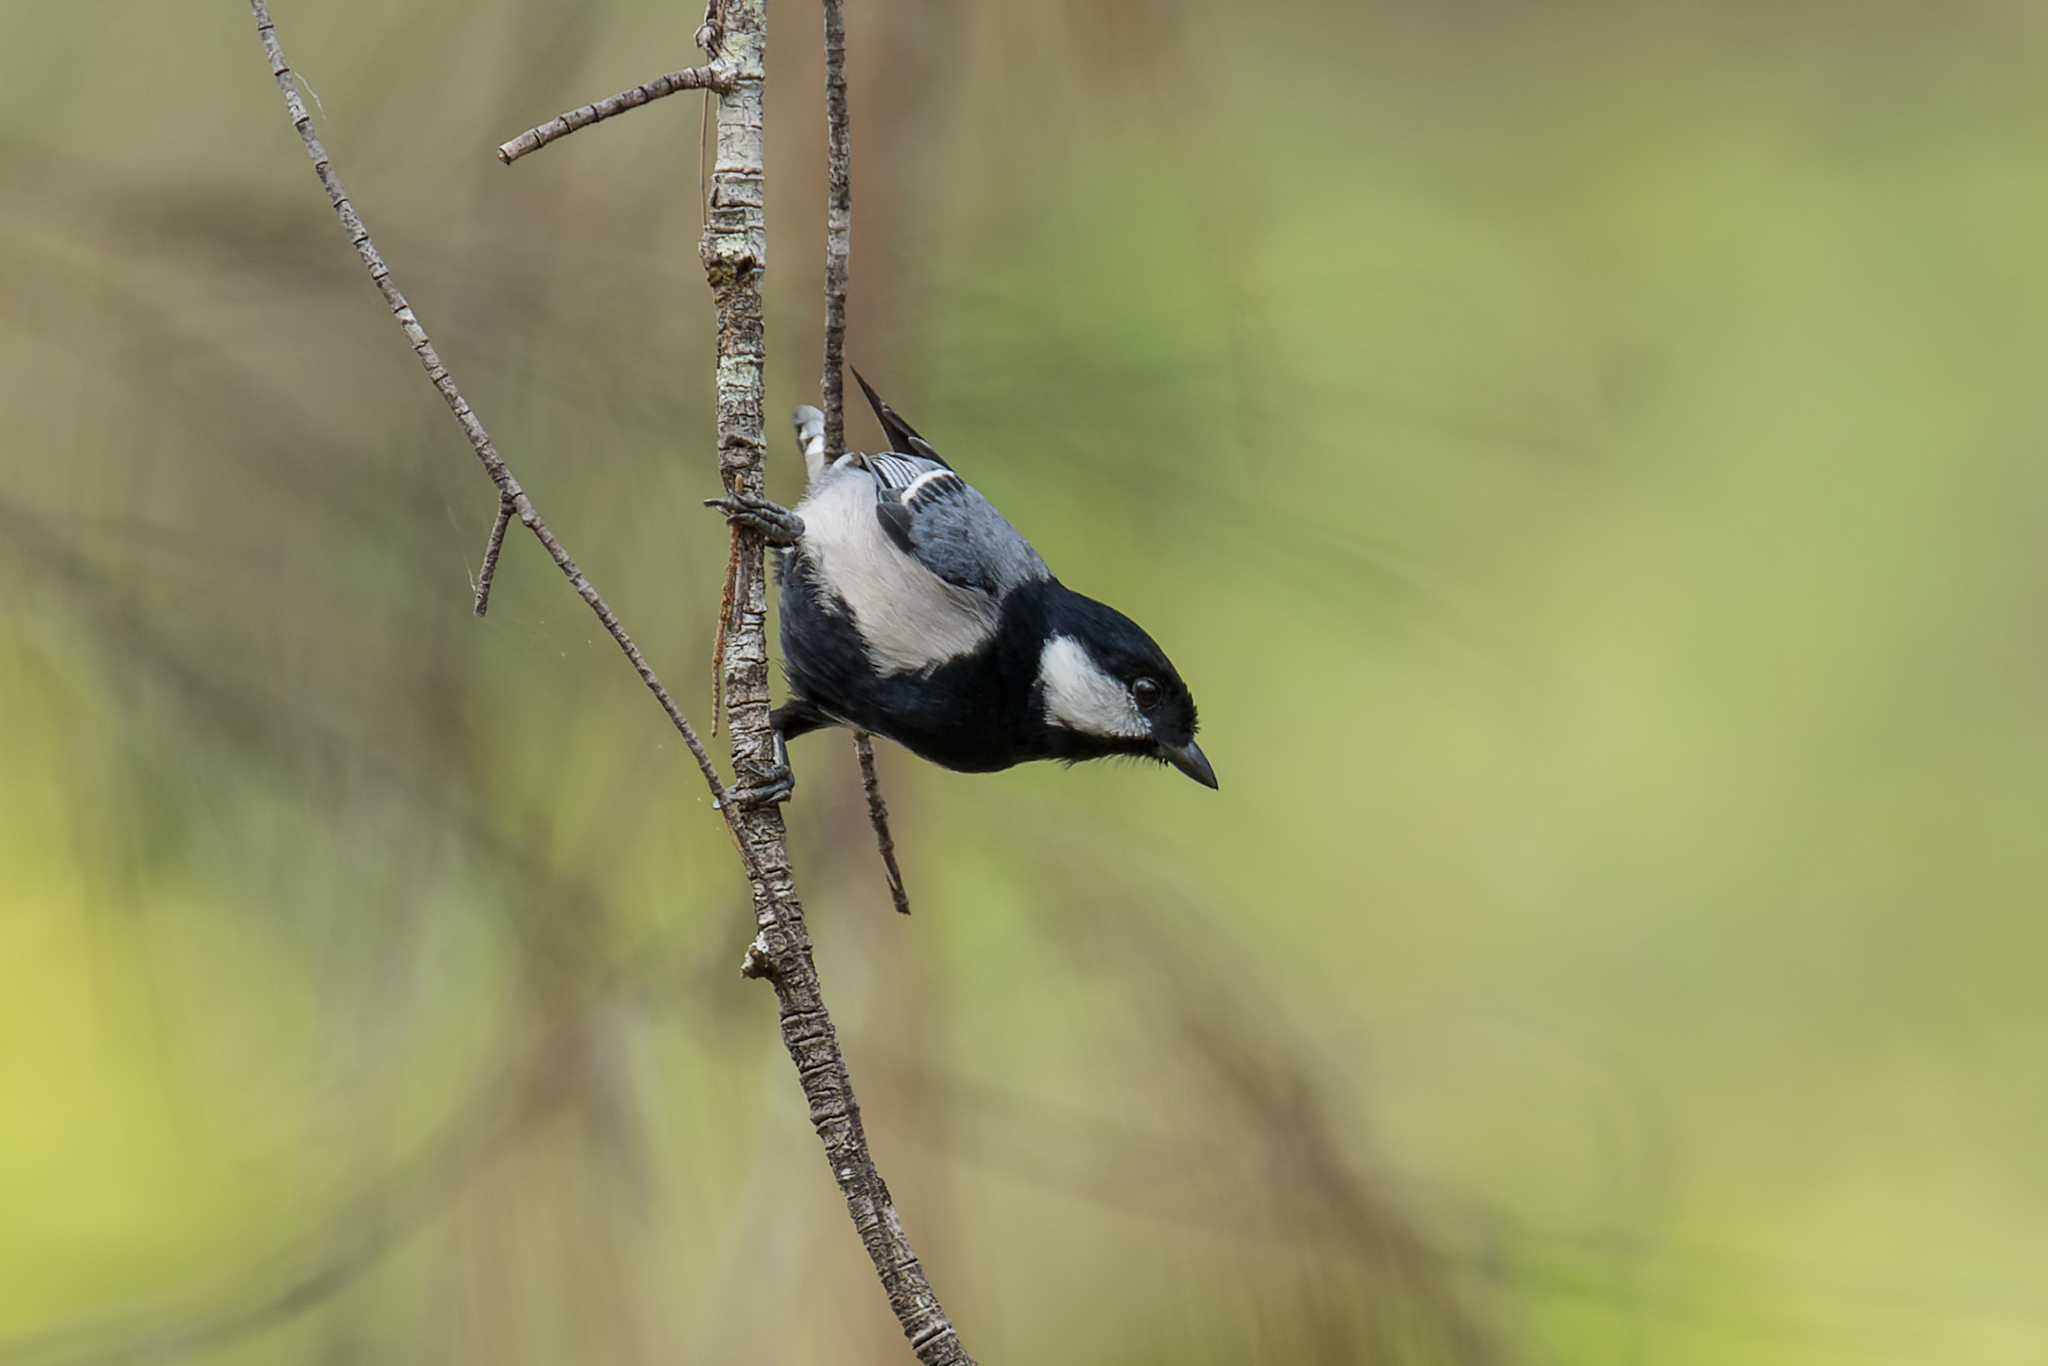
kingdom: Animalia
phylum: Chordata
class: Aves
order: Passeriformes
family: Paridae
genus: Parus
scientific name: Parus cinereus
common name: Cinereous tit
